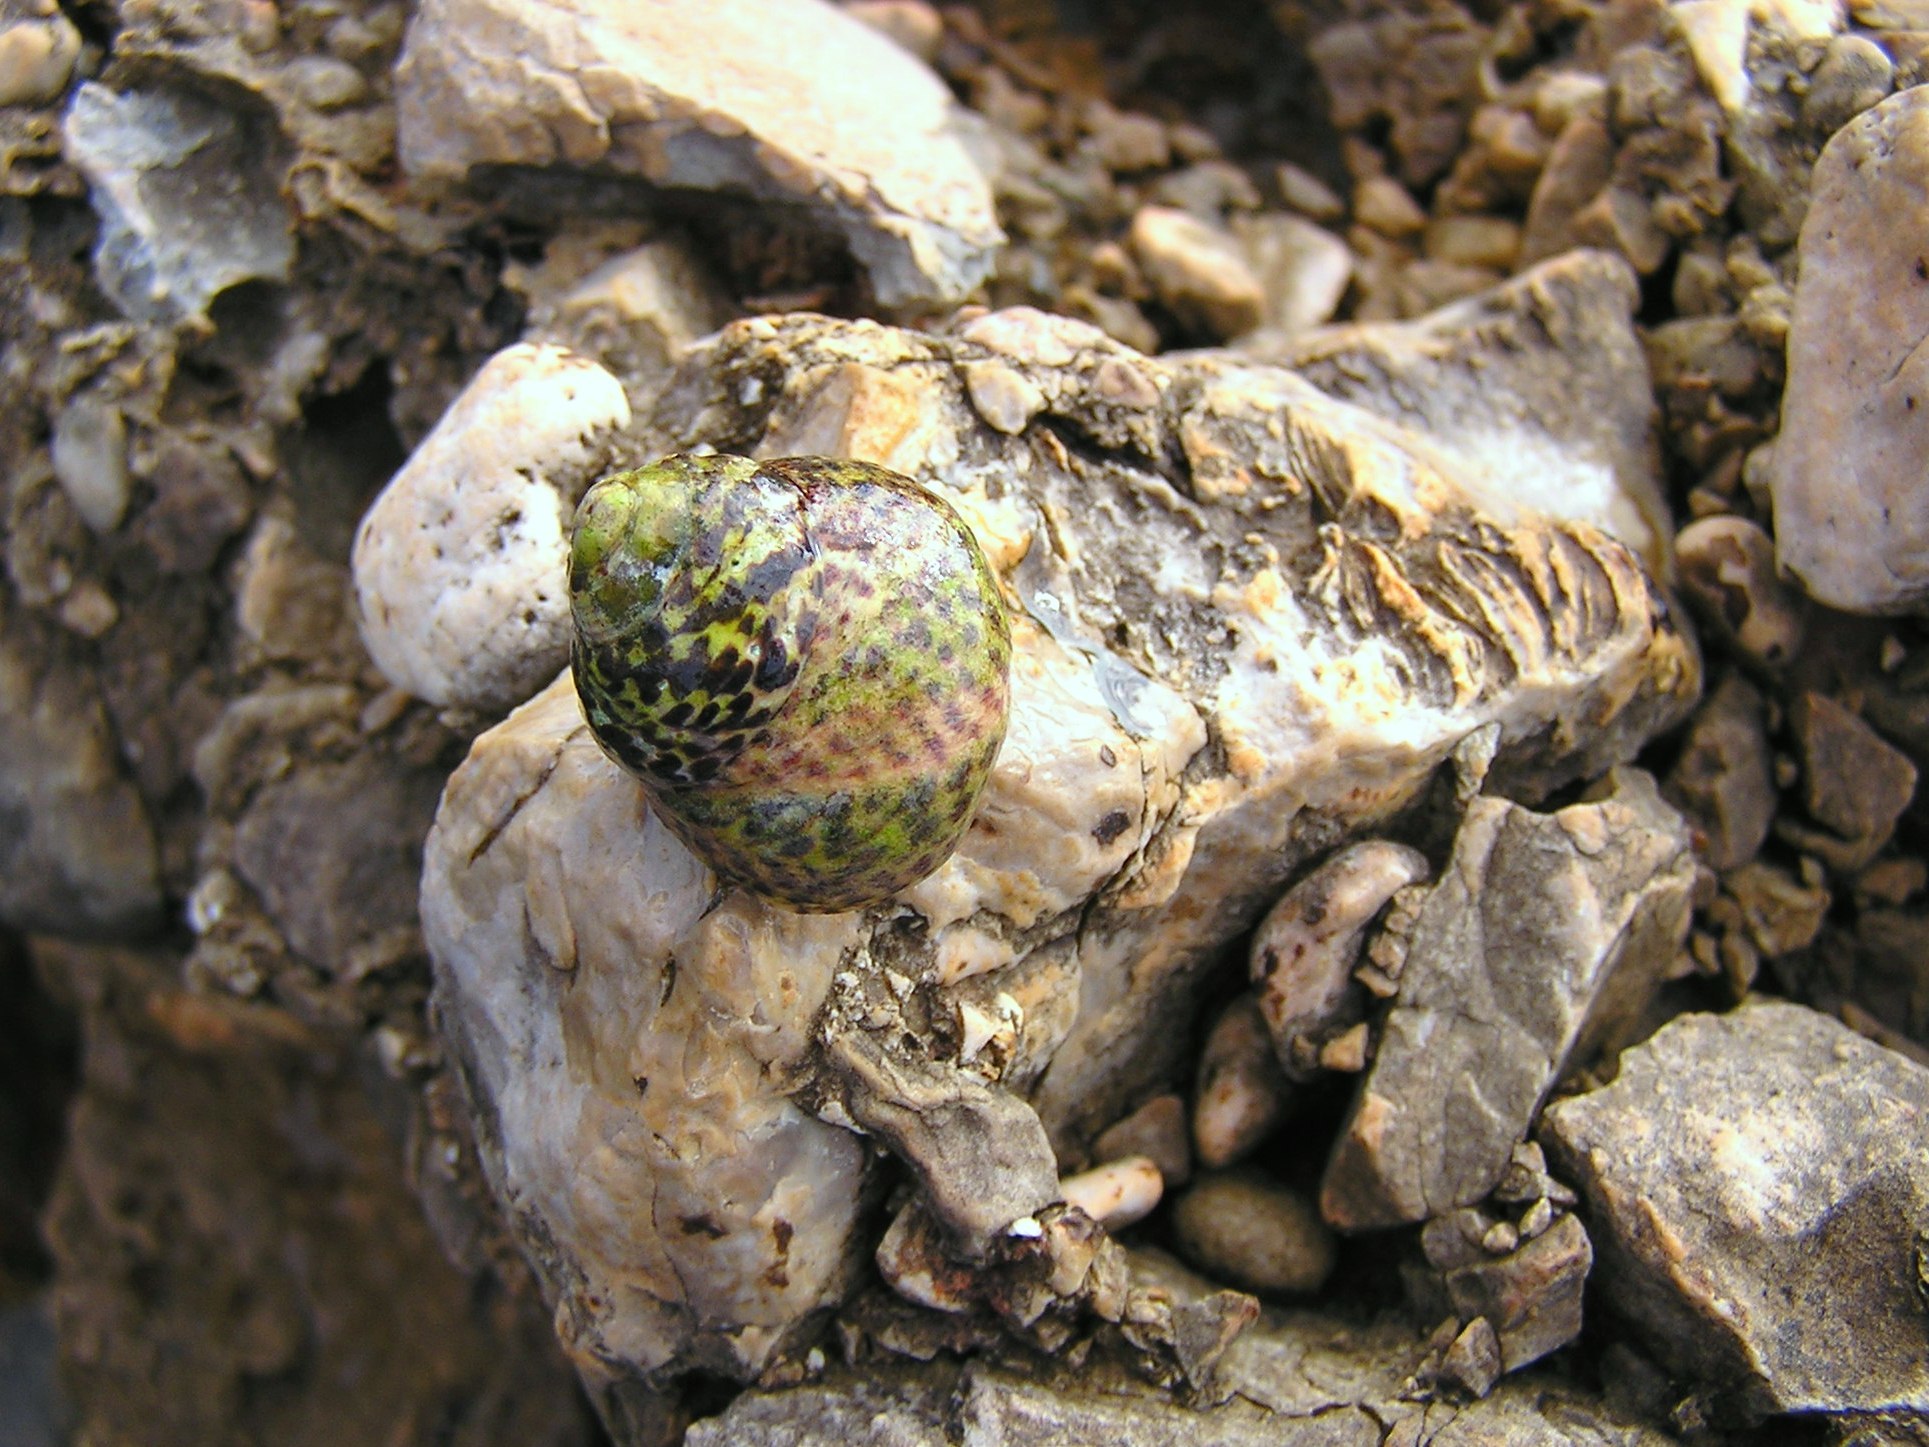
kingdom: Animalia
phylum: Mollusca
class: Gastropoda
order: Trochida
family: Trochidae
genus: Phorcus
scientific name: Phorcus turbinatus
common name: Turbinate monodont
